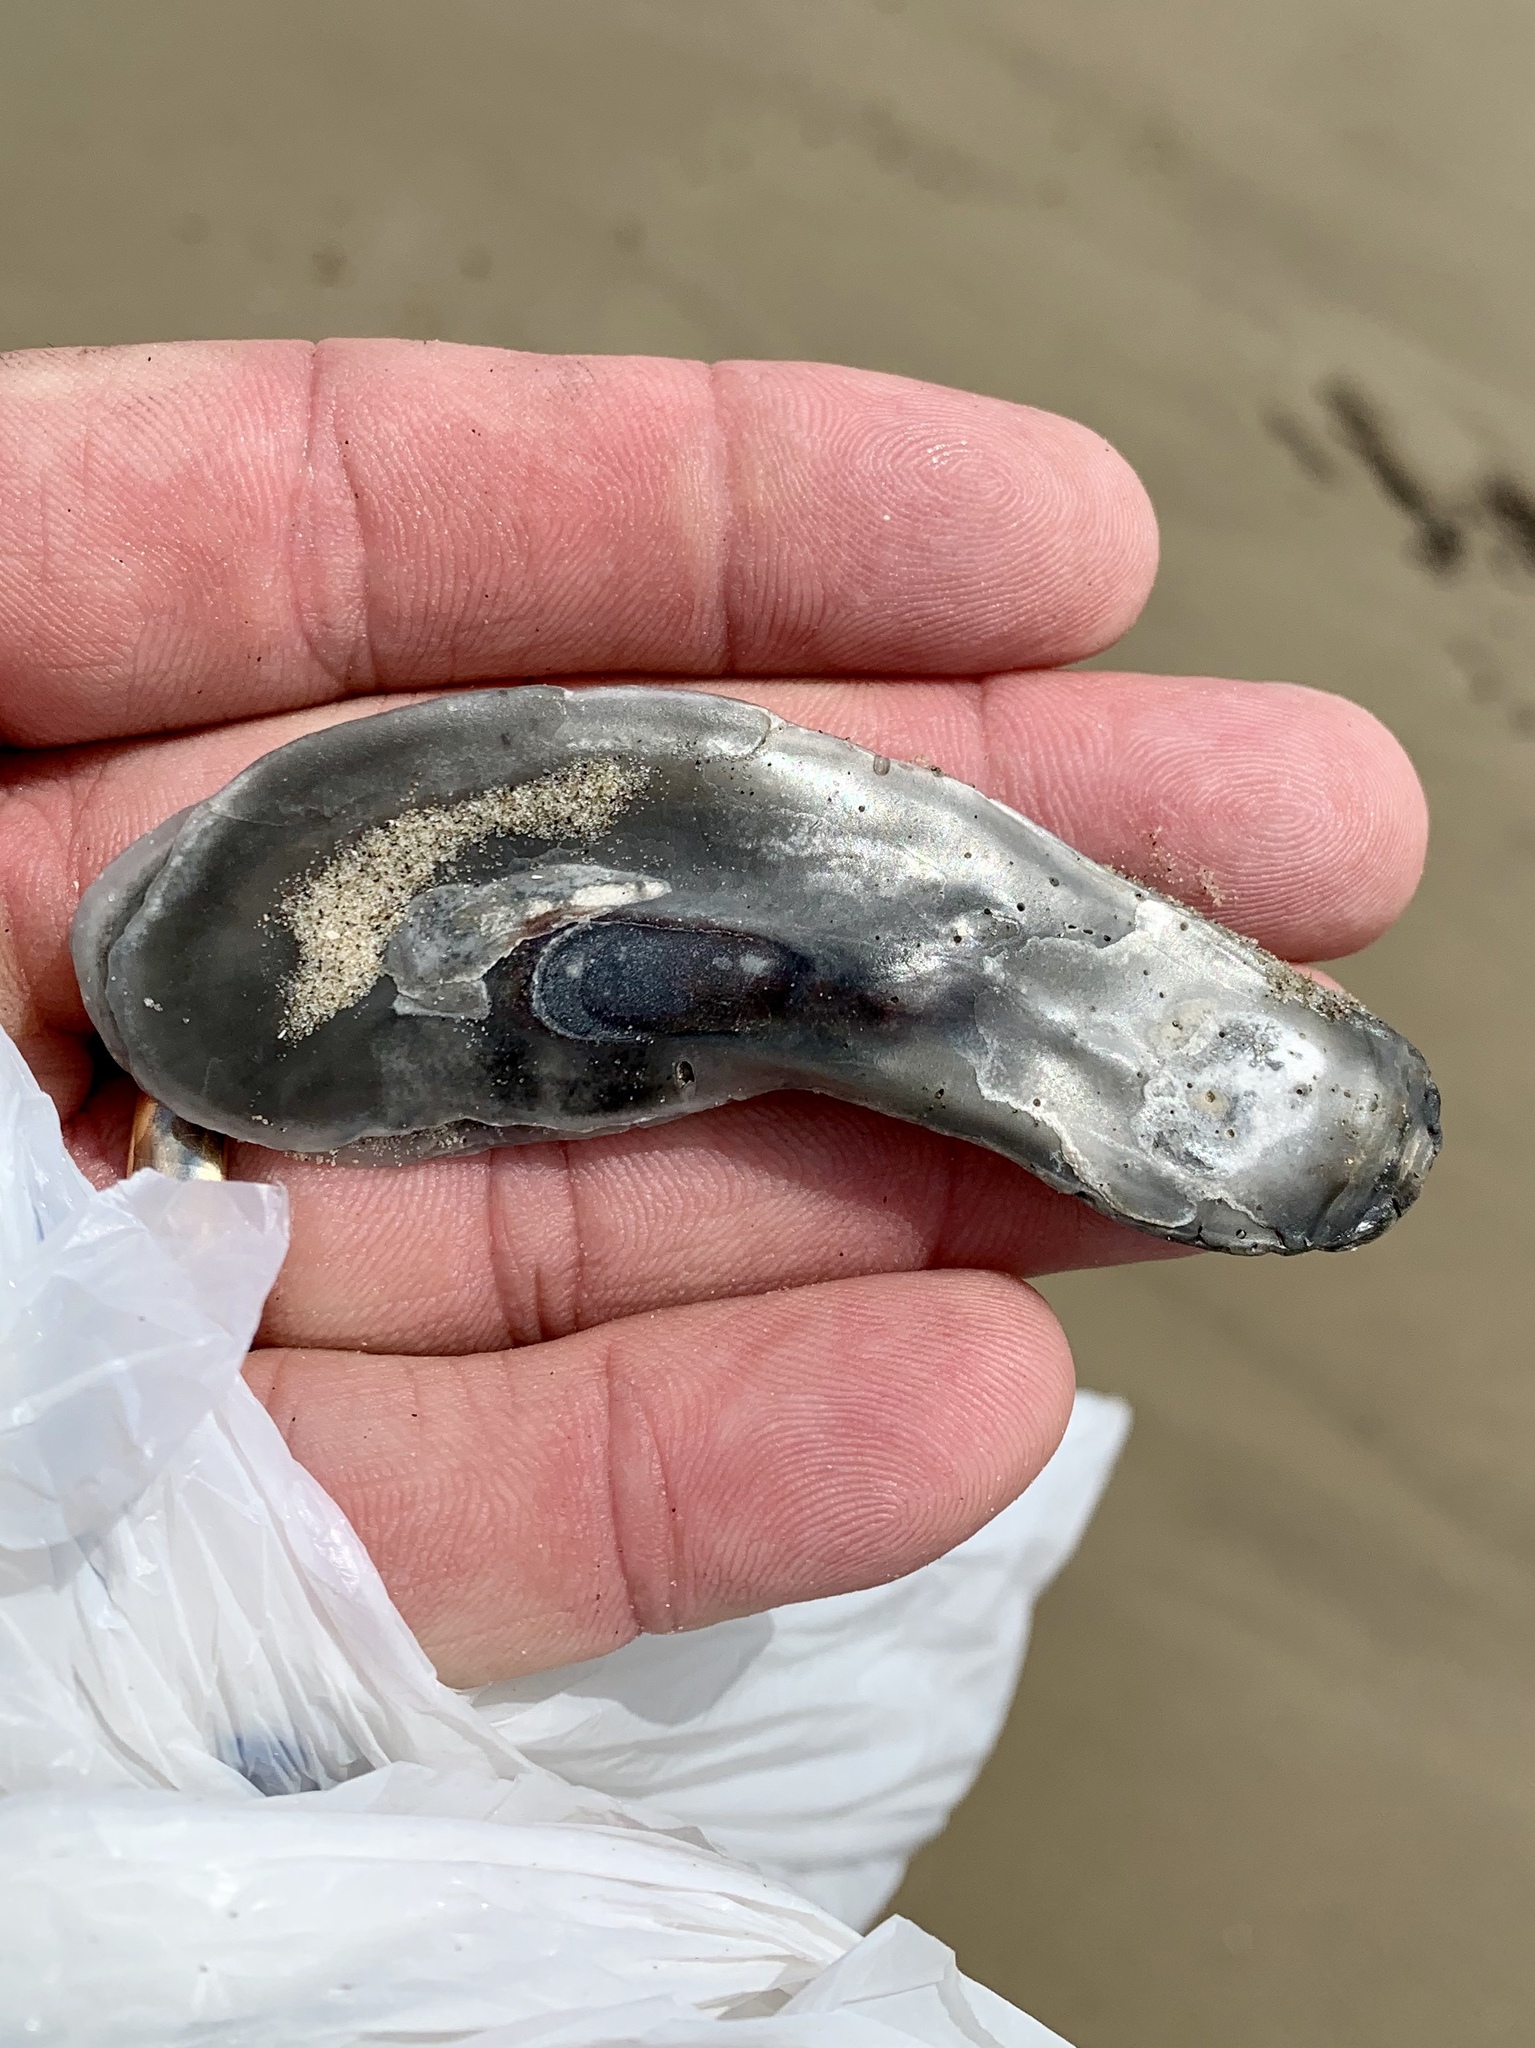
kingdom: Animalia
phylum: Mollusca
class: Bivalvia
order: Ostreida
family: Ostreidae
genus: Crassostrea
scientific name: Crassostrea virginica
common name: American oyster
